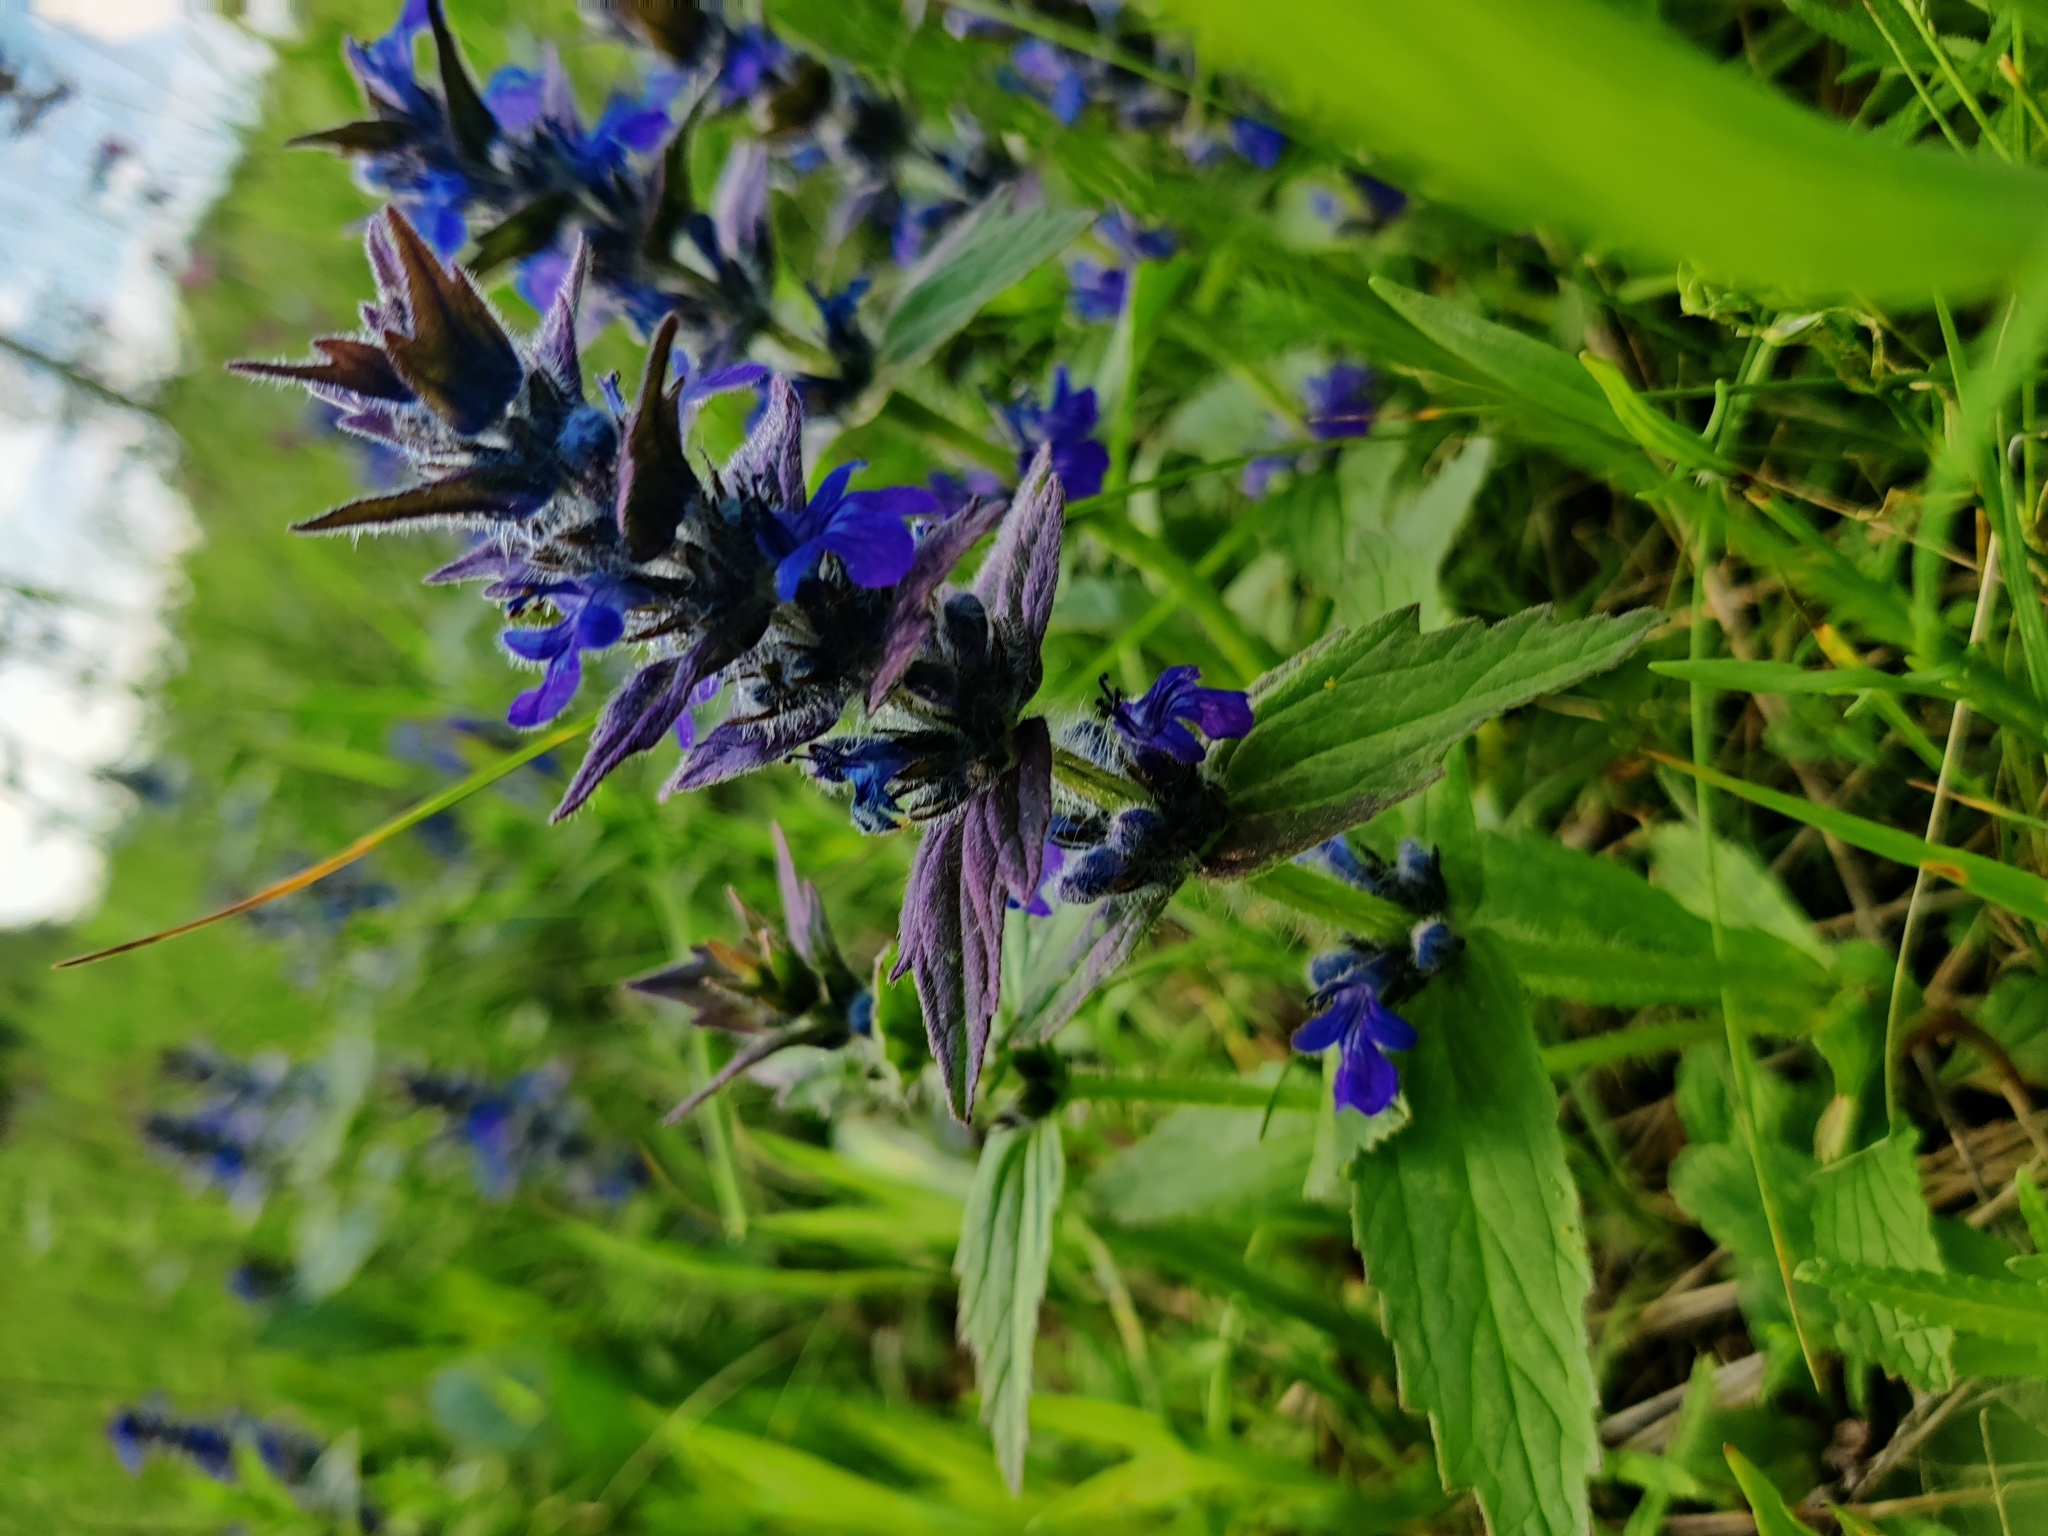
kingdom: Plantae
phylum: Tracheophyta
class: Magnoliopsida
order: Lamiales
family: Lamiaceae
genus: Ajuga
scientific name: Ajuga genevensis
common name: Blue bugle
